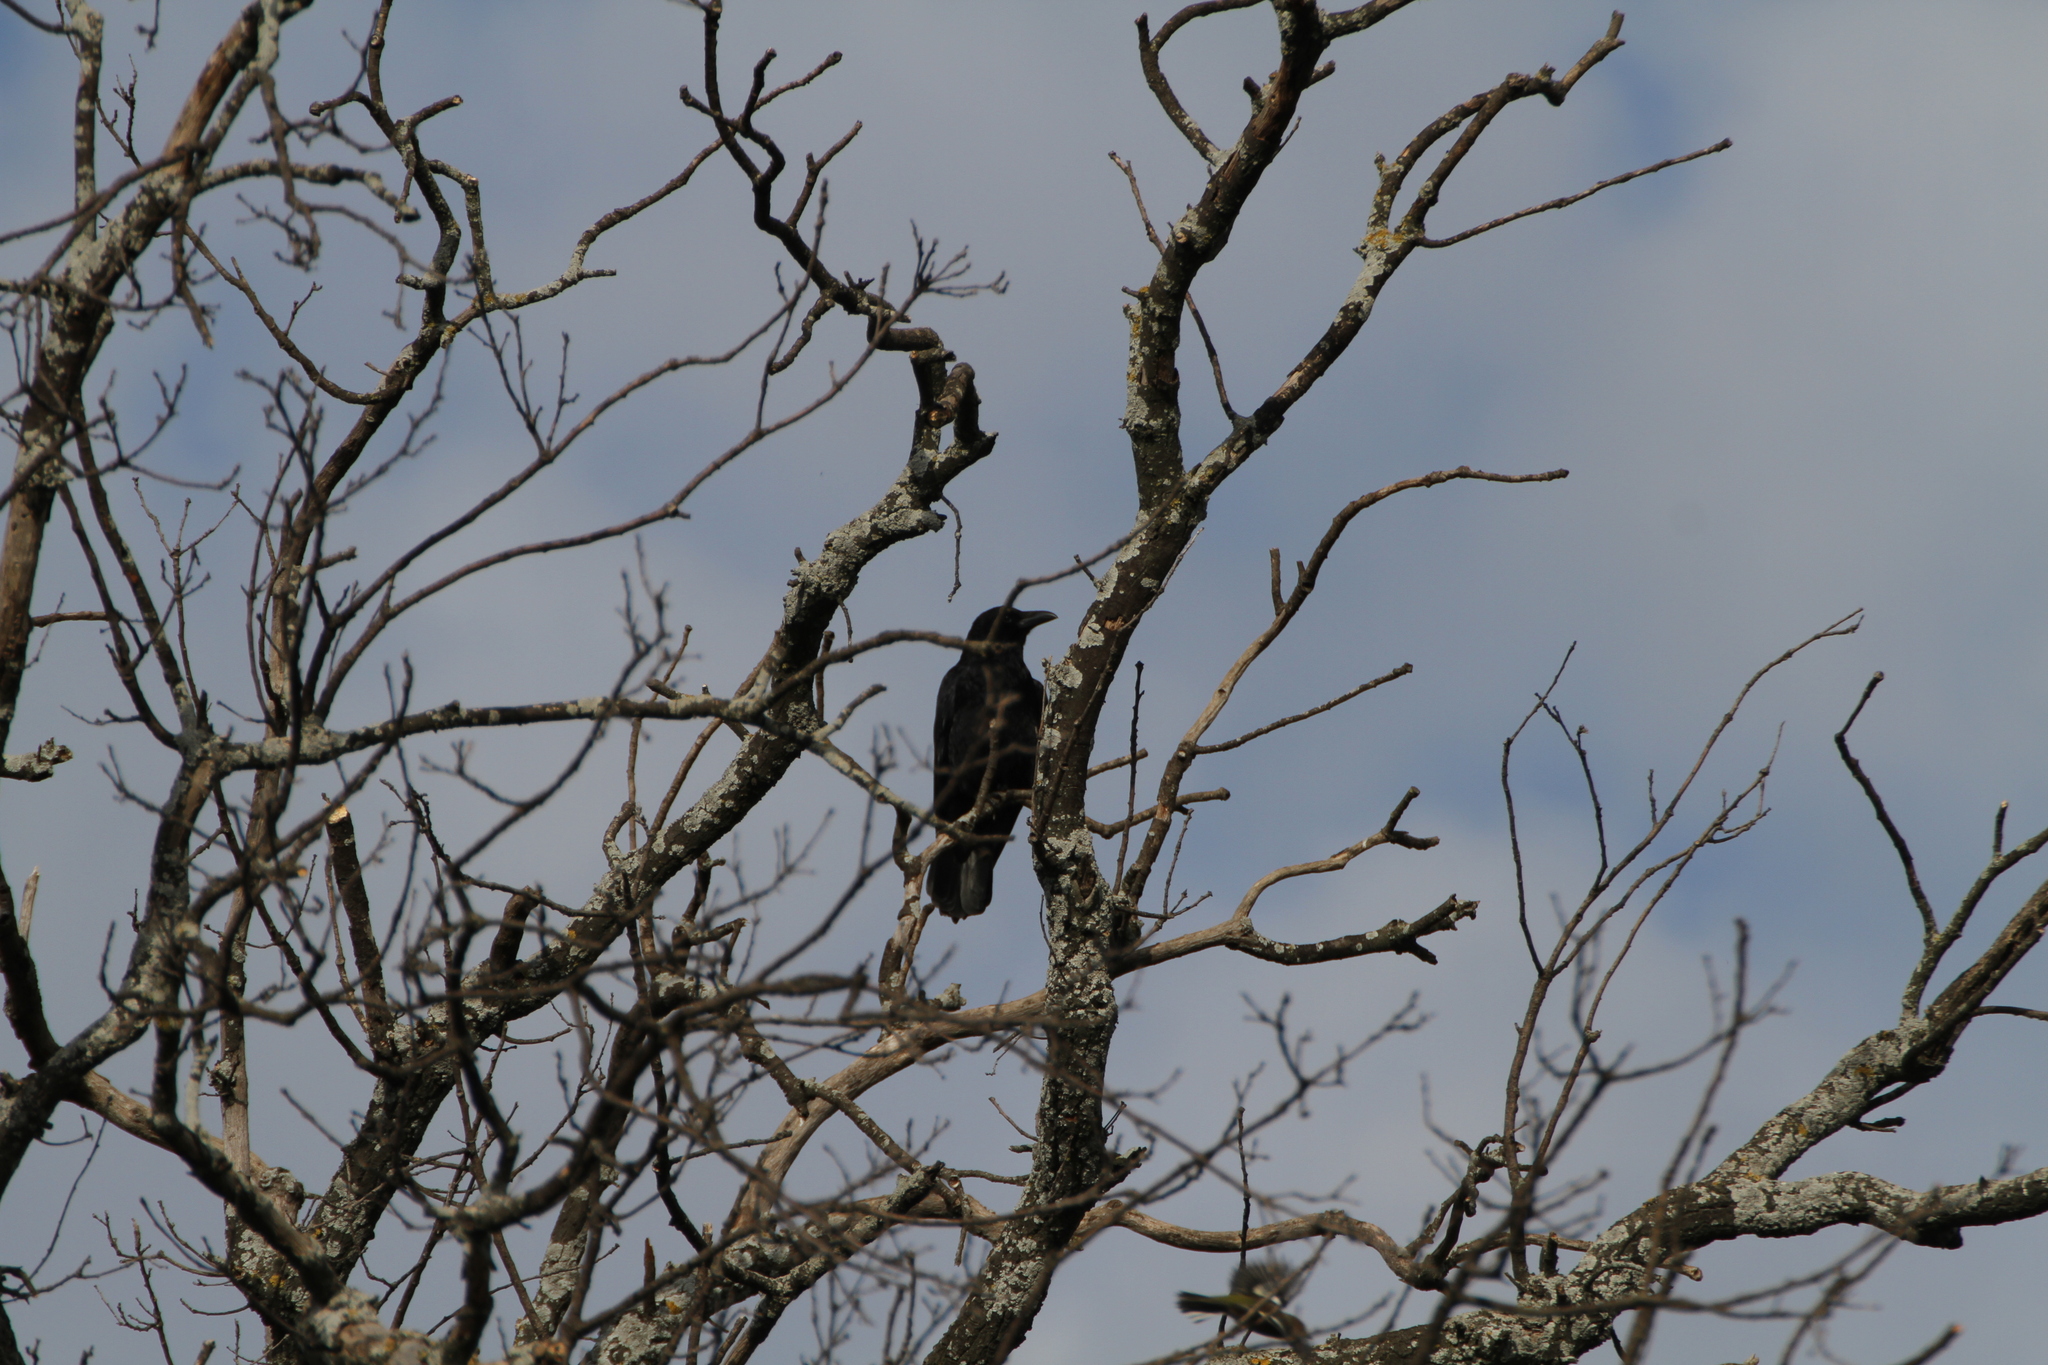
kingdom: Animalia
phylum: Chordata
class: Aves
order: Passeriformes
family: Corvidae
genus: Corvus
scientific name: Corvus corone
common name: Carrion crow
